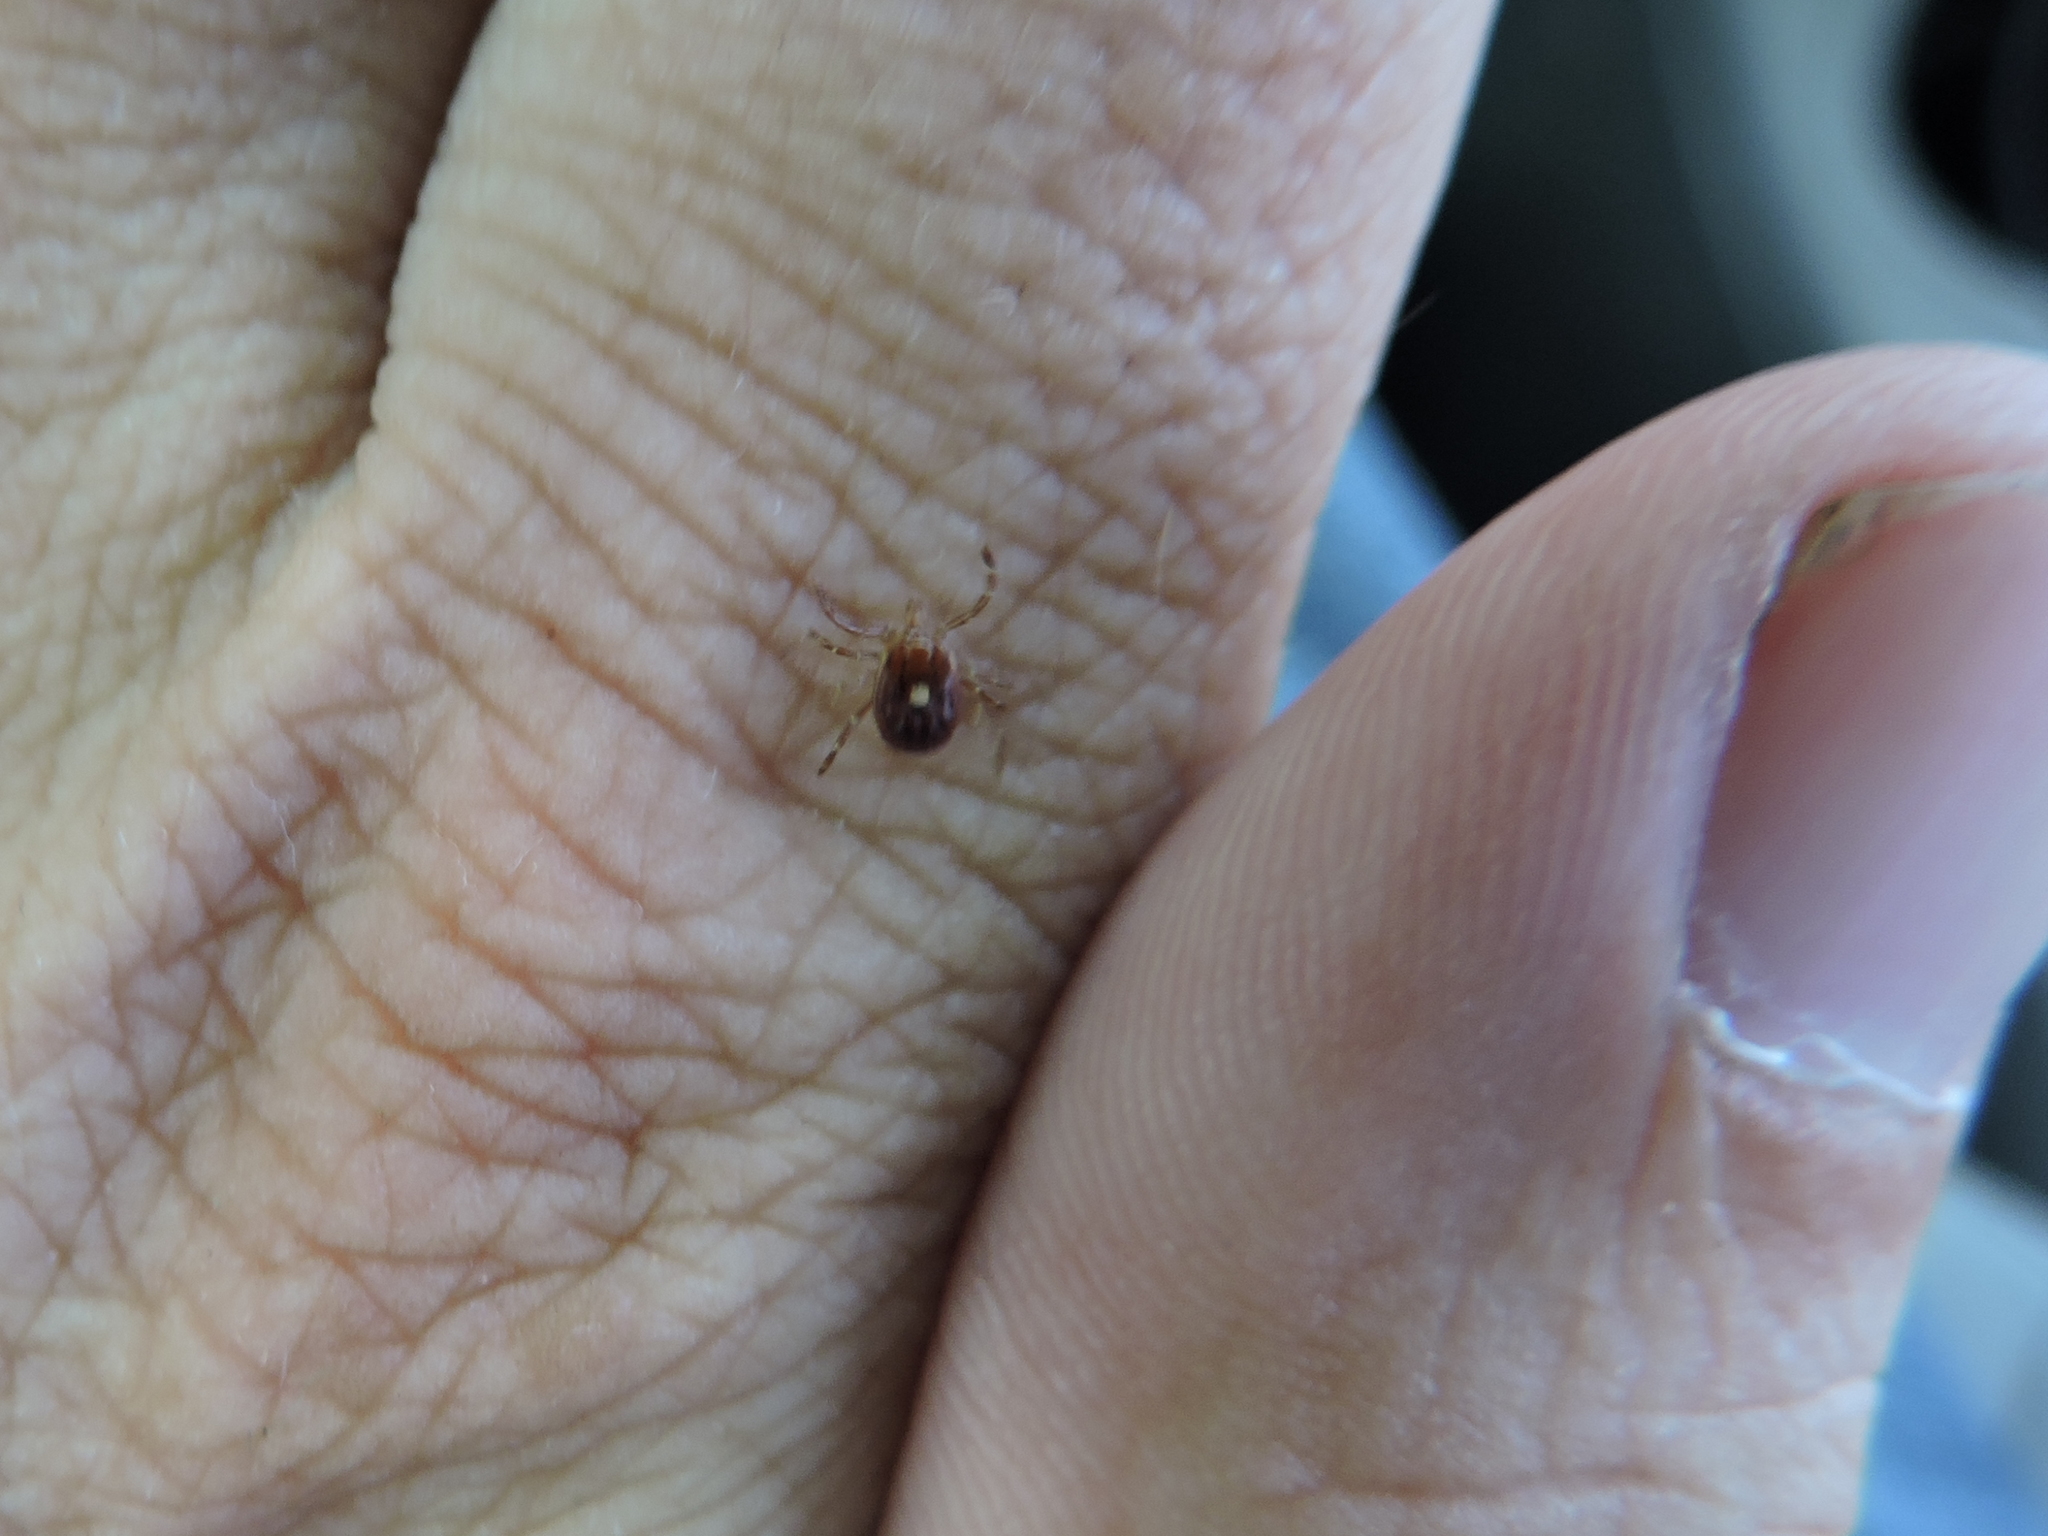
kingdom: Animalia
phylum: Arthropoda
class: Arachnida
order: Ixodida
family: Ixodidae
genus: Amblyomma
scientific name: Amblyomma americanum
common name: Lone star tick
